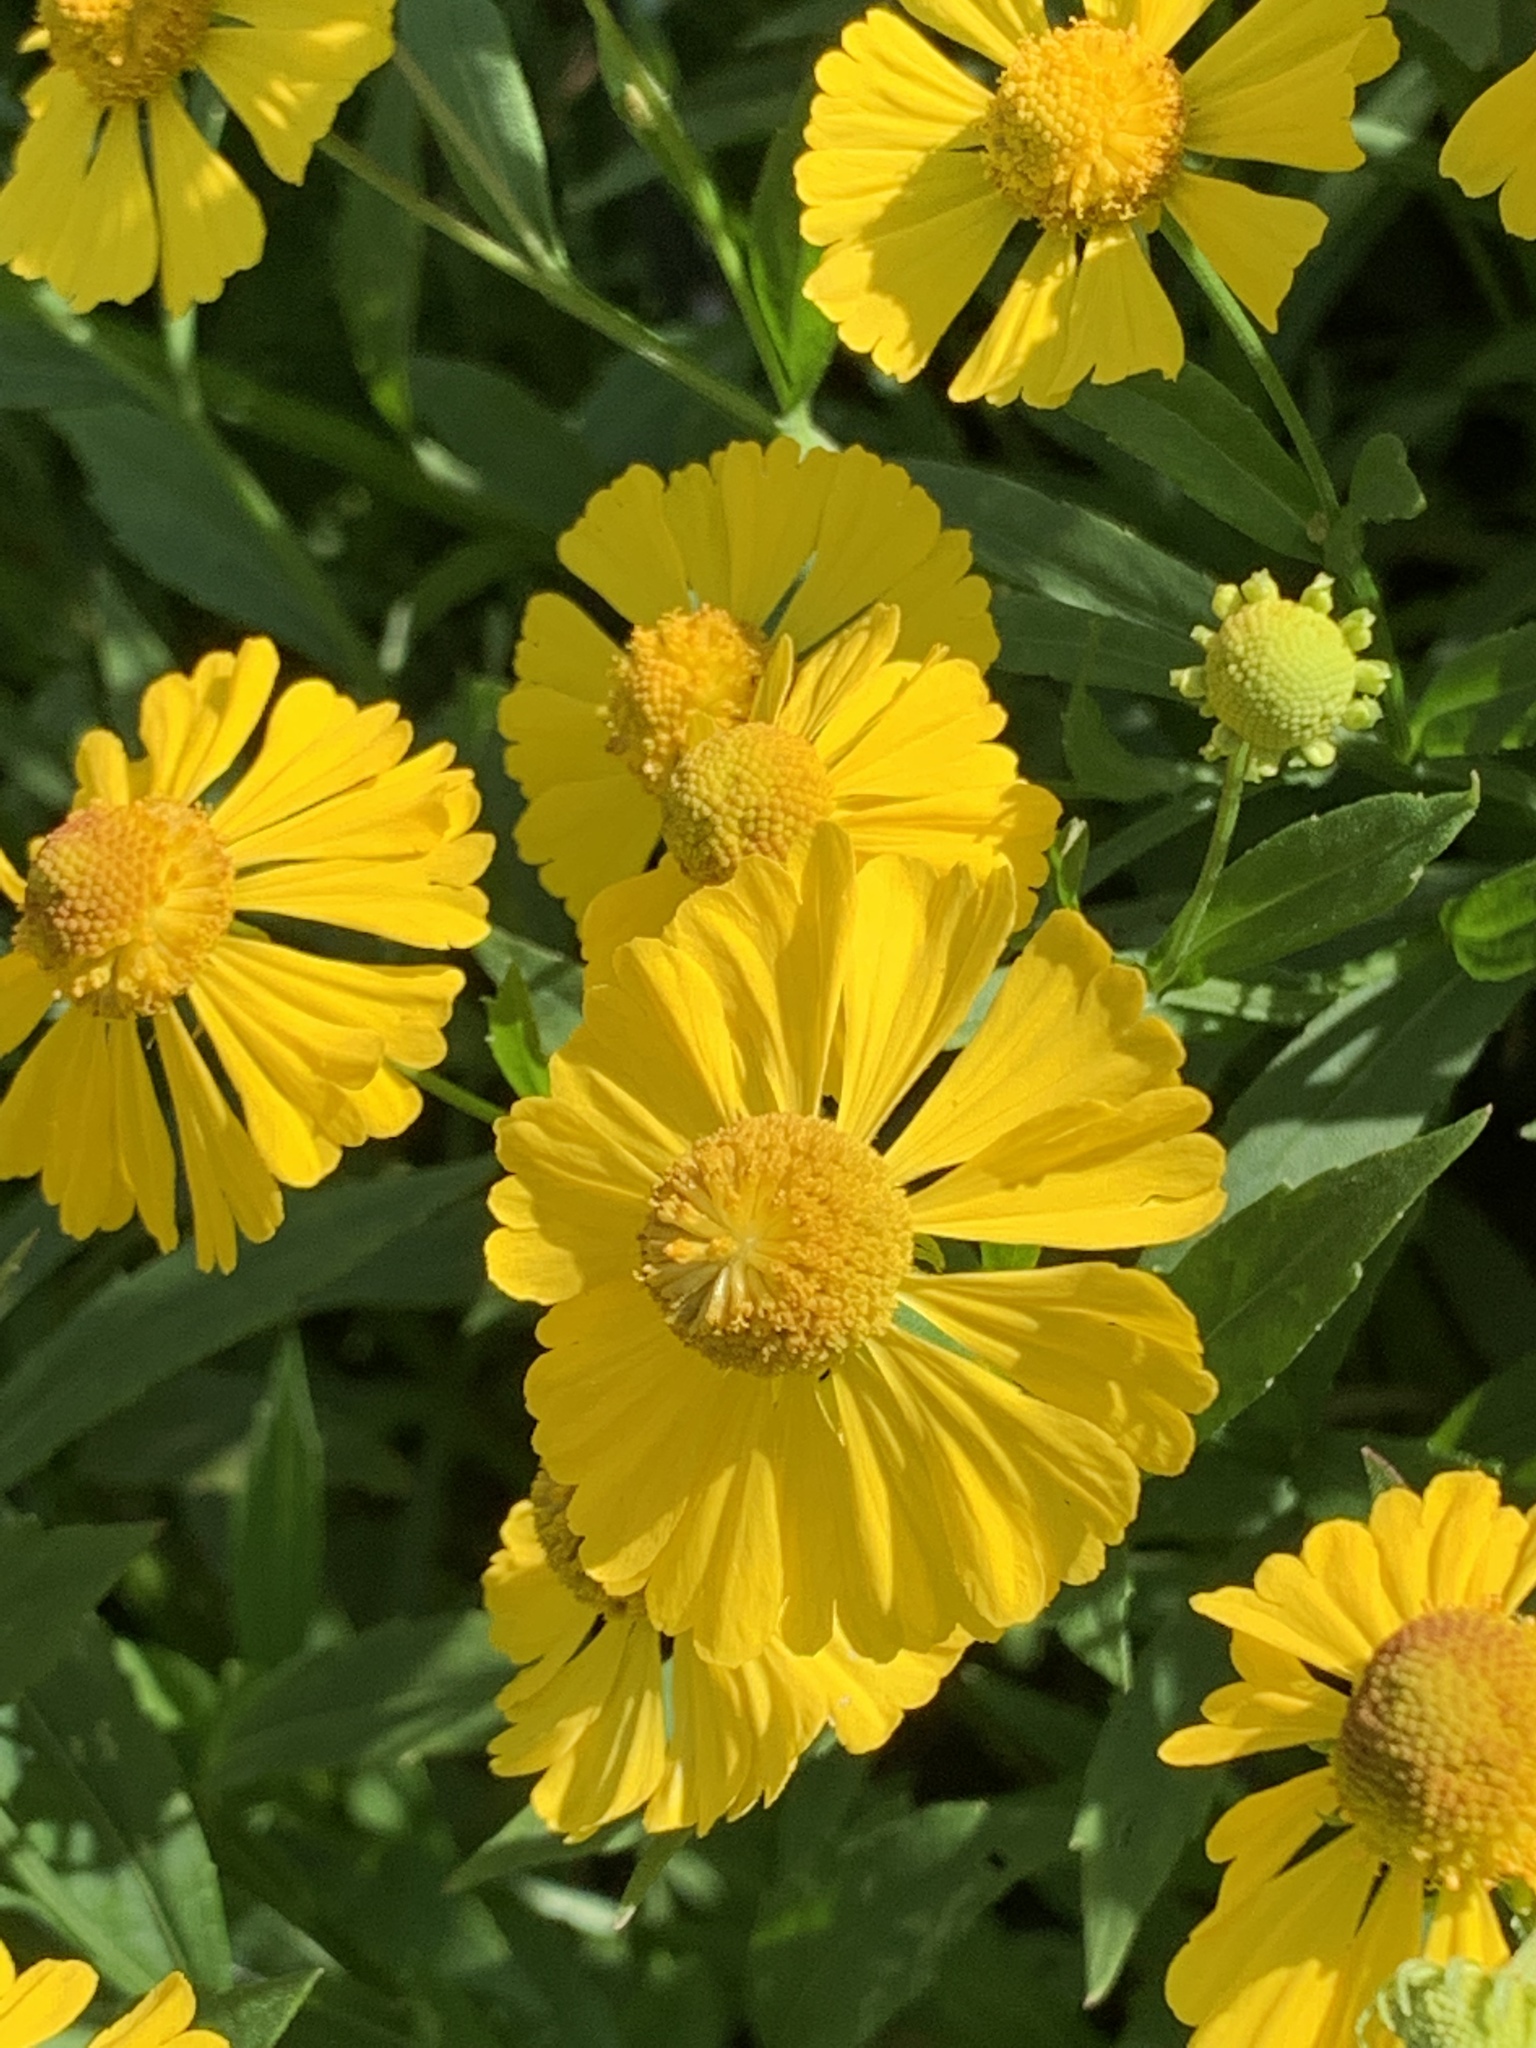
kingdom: Plantae
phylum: Tracheophyta
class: Magnoliopsida
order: Asterales
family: Asteraceae
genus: Helenium
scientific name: Helenium autumnale
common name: Sneezeweed
